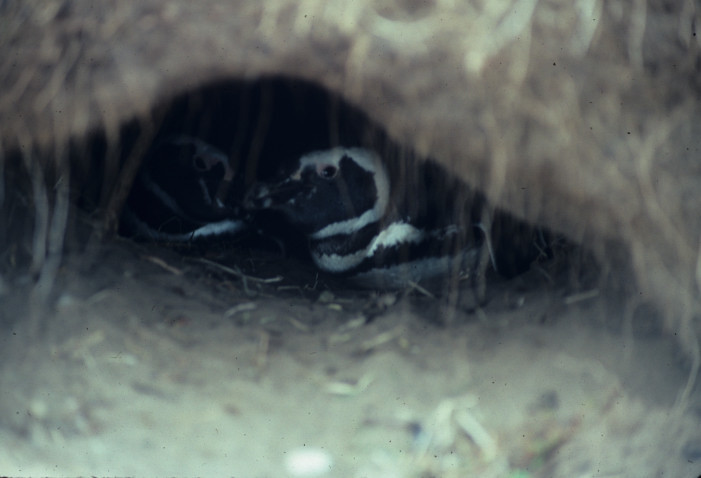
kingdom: Animalia
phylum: Chordata
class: Aves
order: Sphenisciformes
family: Spheniscidae
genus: Spheniscus
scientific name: Spheniscus magellanicus
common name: Magellanic penguin
